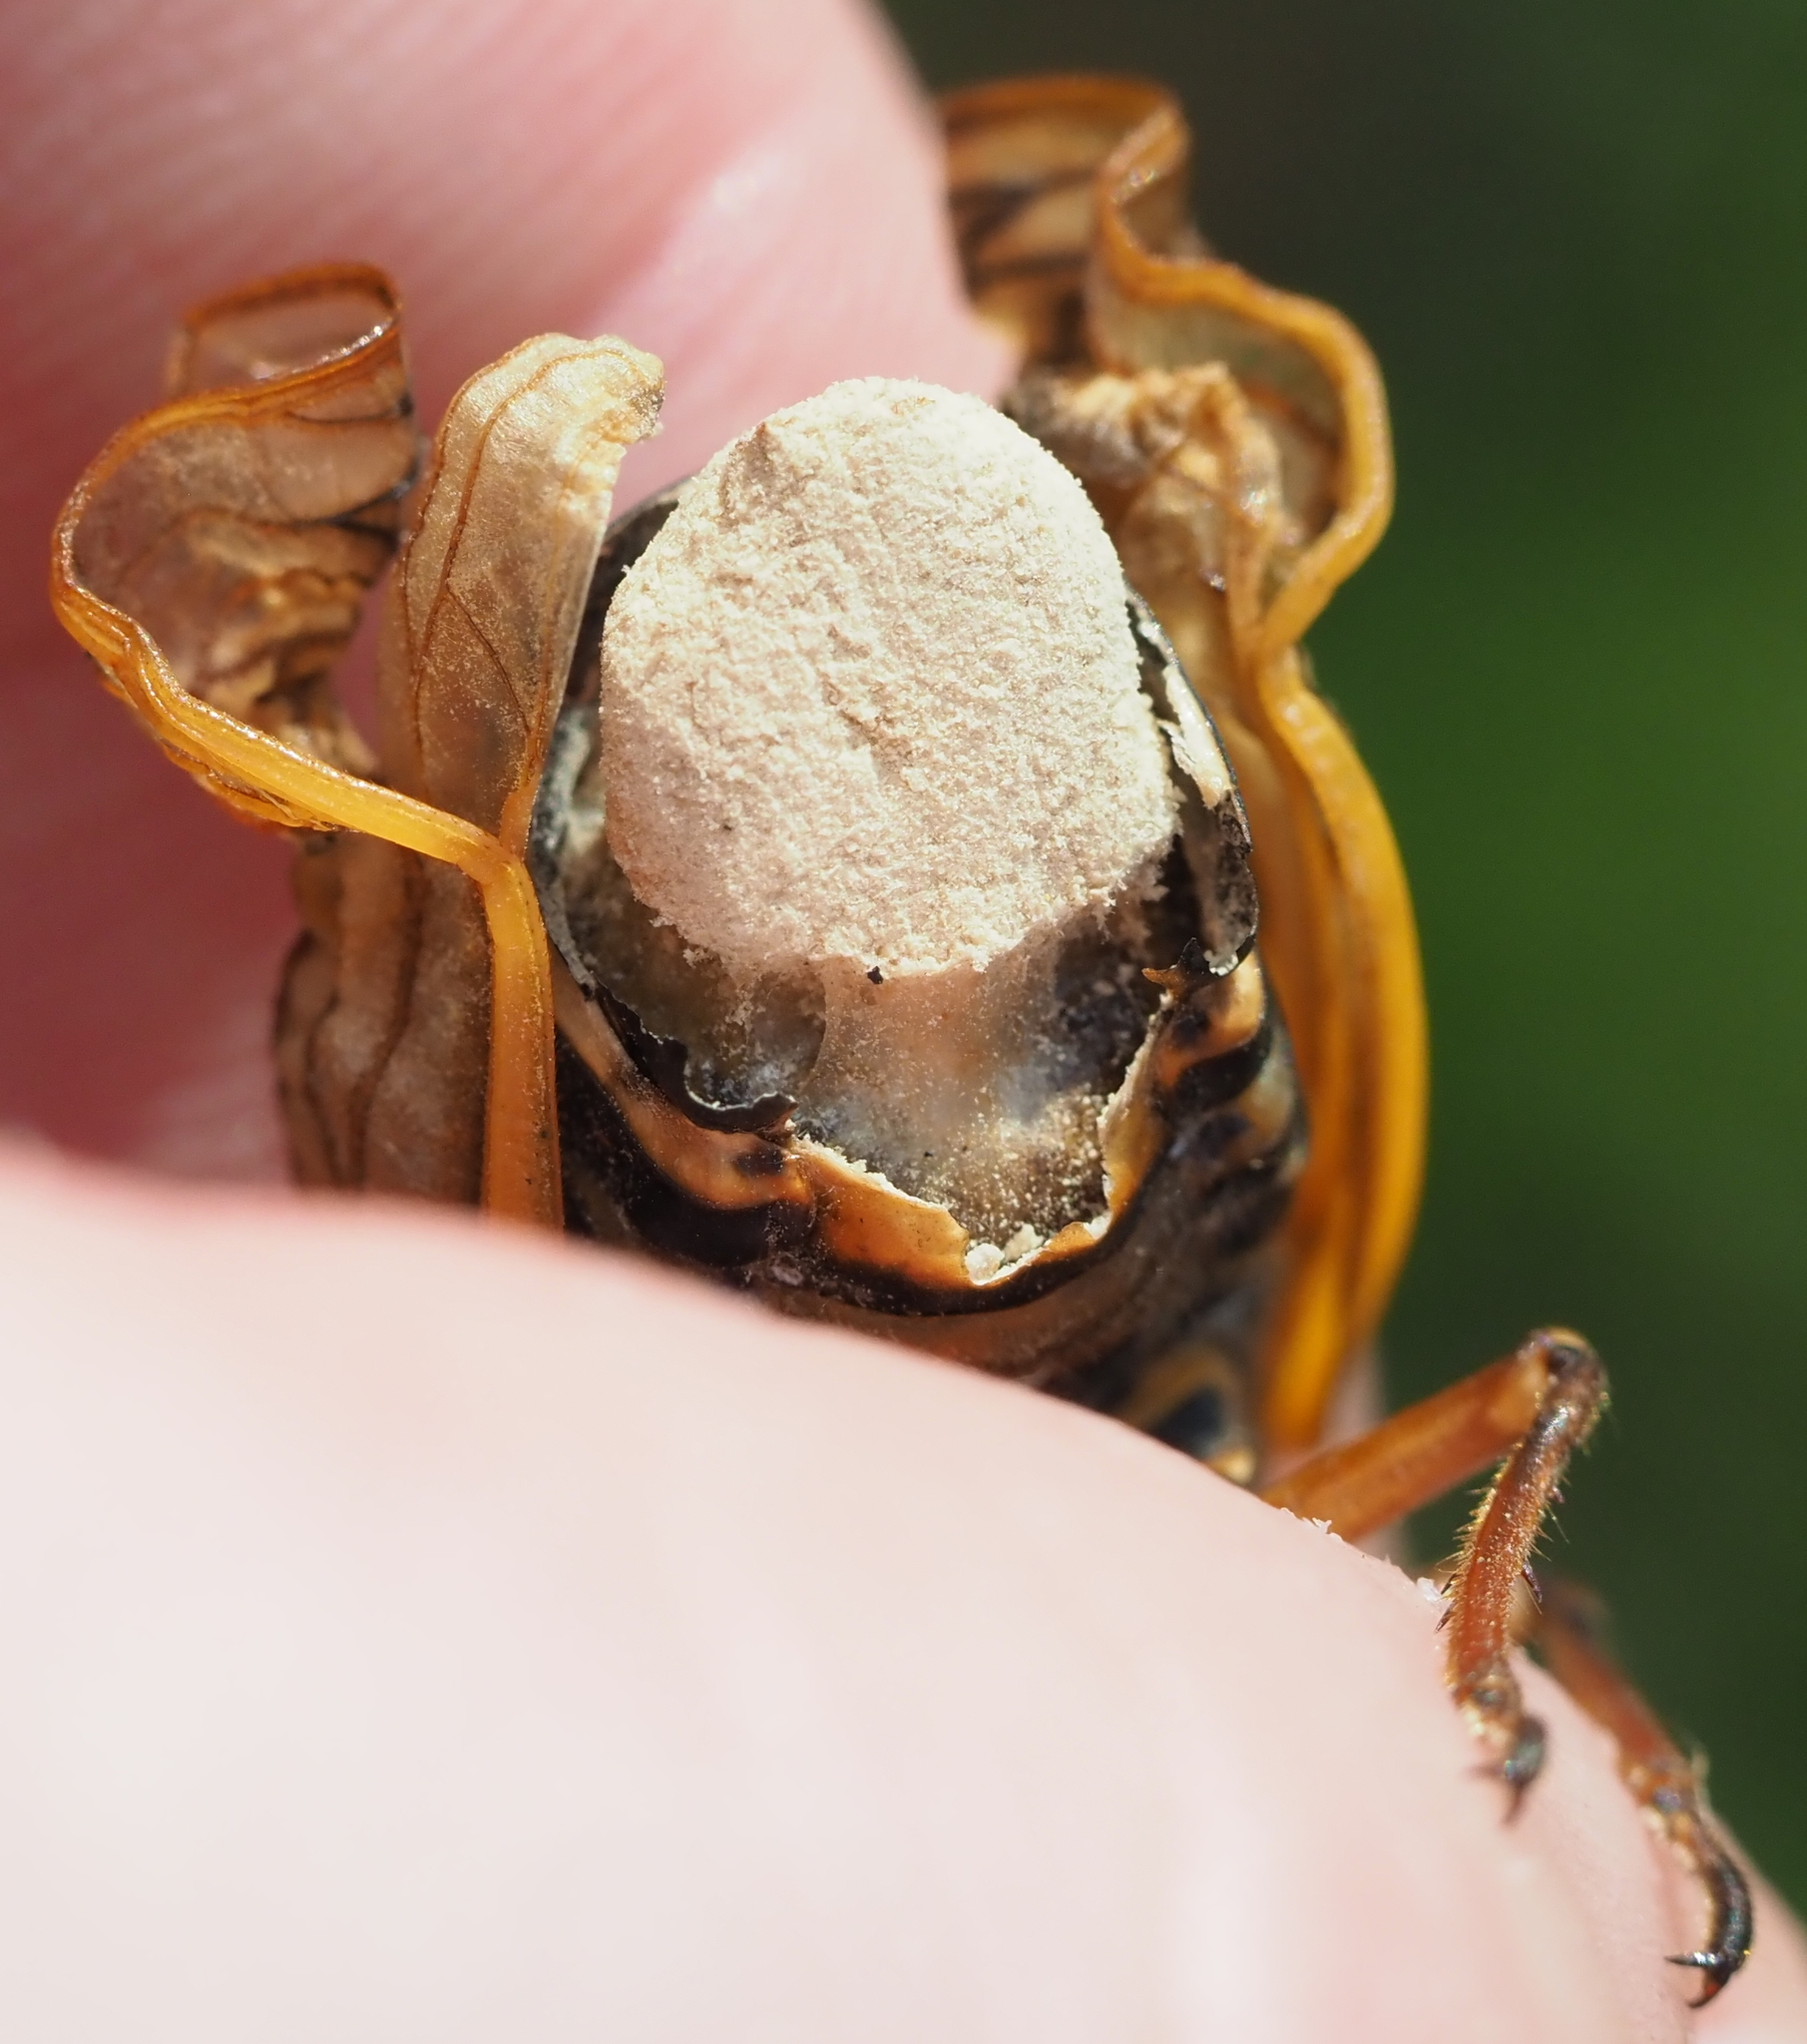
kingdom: Fungi
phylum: Entomophthoromycota
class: Entomophthoromycetes
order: Entomophthorales
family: Entomophthoraceae
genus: Massospora
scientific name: Massospora cicadina
